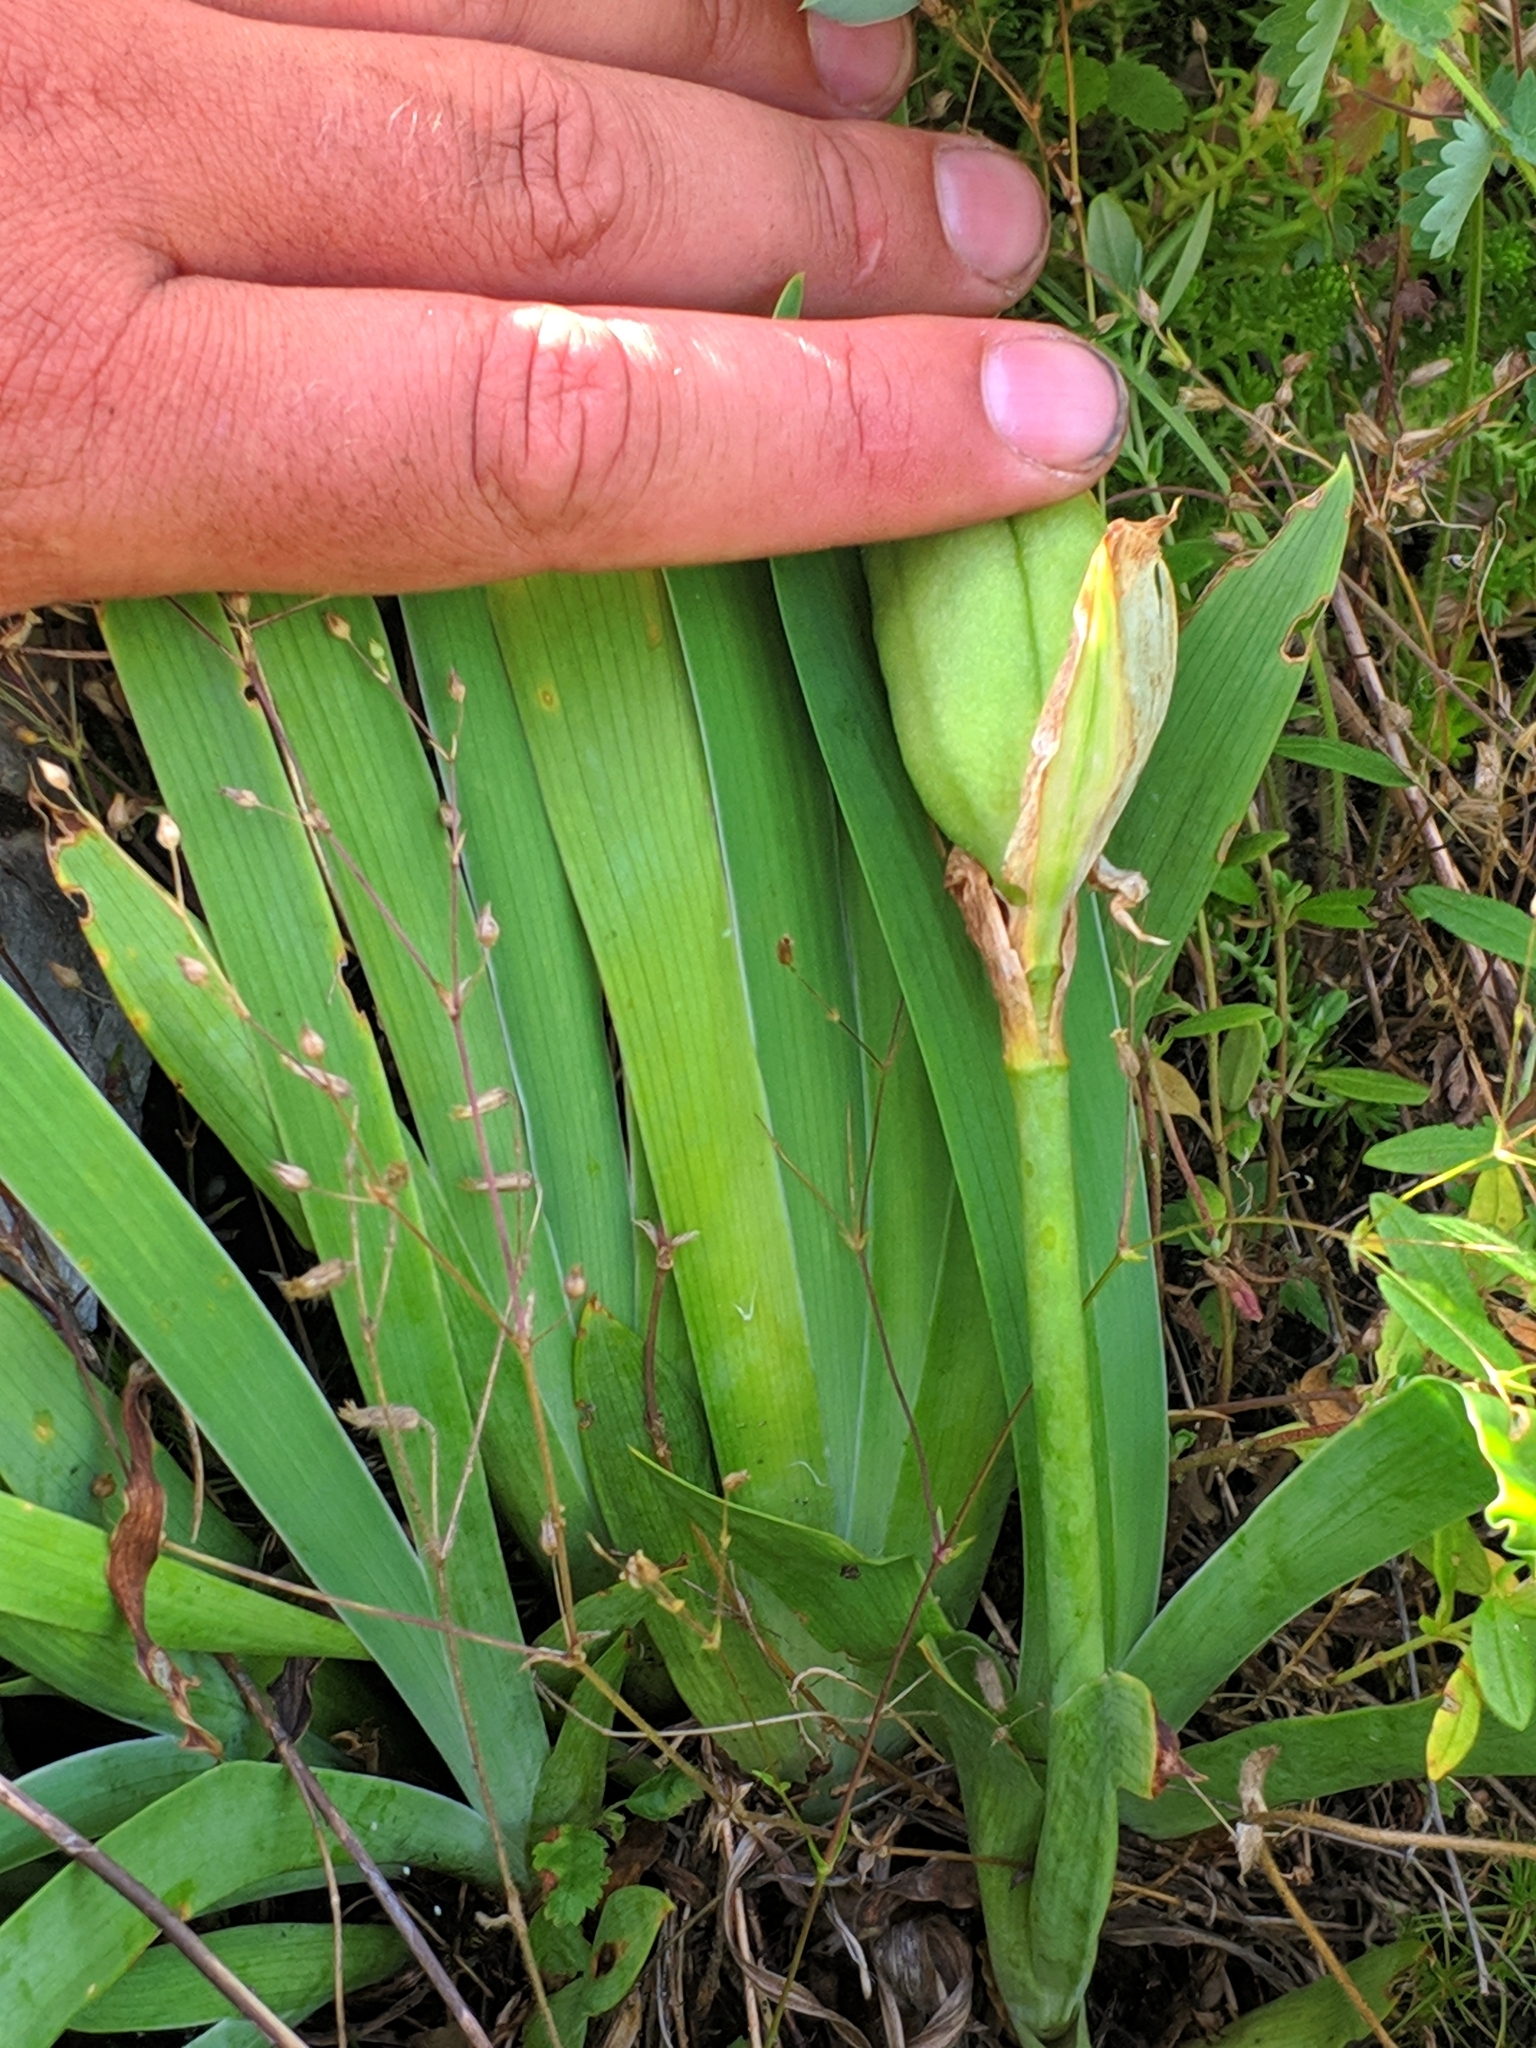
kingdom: Plantae
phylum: Tracheophyta
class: Liliopsida
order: Asparagales
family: Iridaceae
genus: Iris
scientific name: Iris reichenbachii
